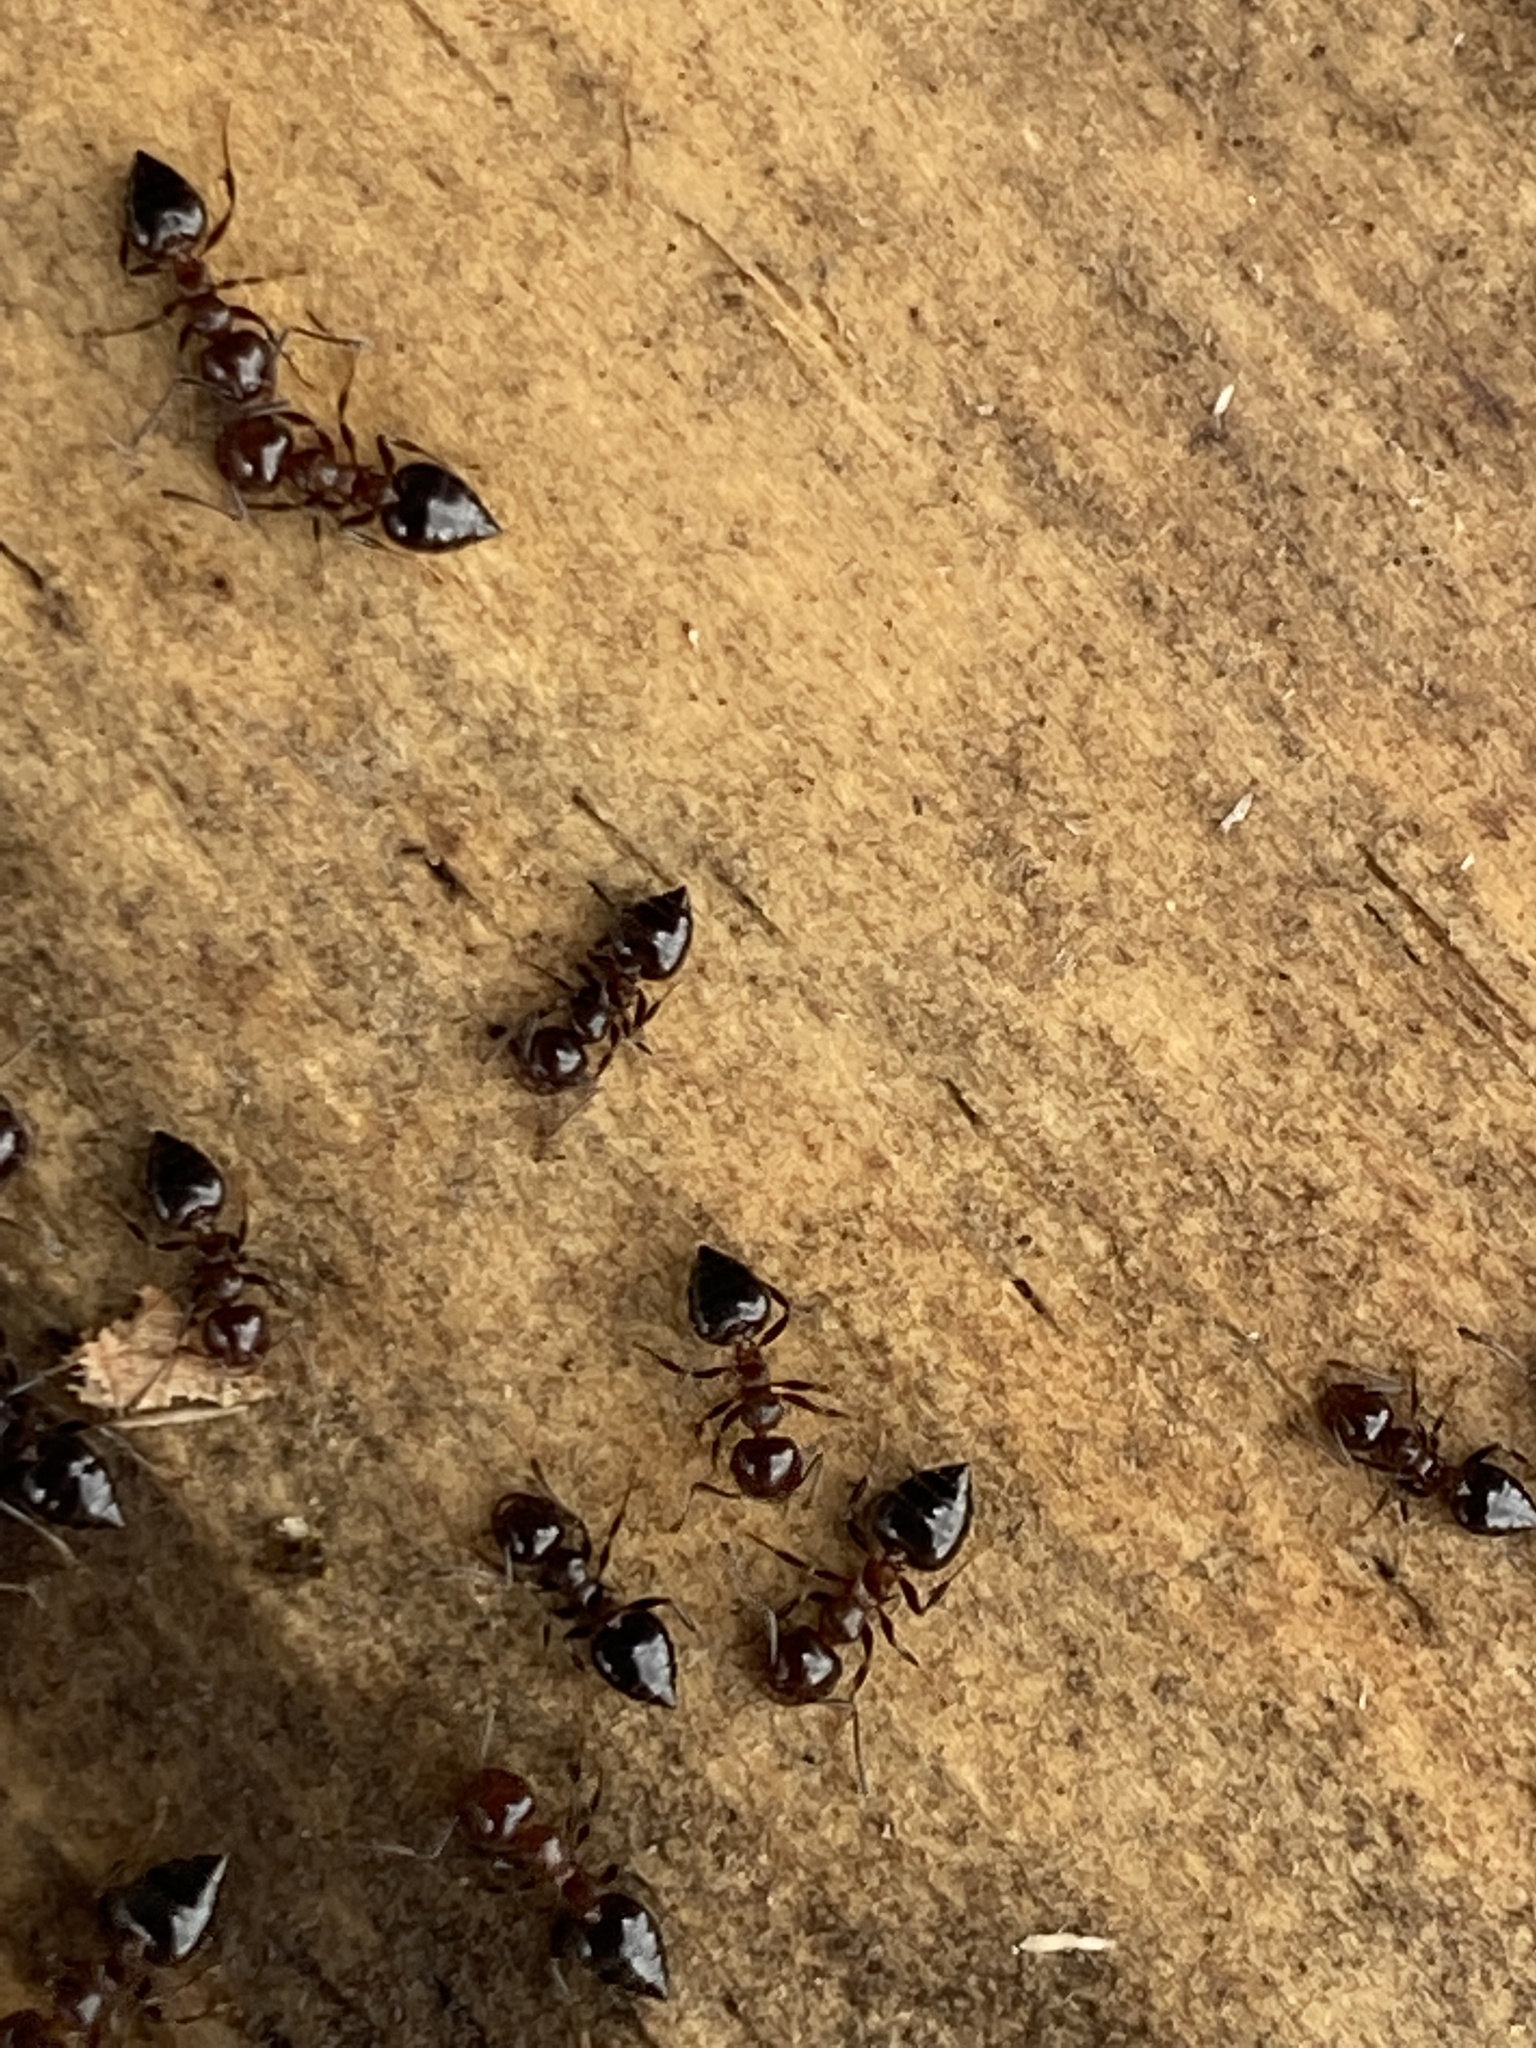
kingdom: Animalia
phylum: Arthropoda
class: Insecta
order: Hymenoptera
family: Formicidae
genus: Crematogaster
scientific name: Crematogaster pilosa
